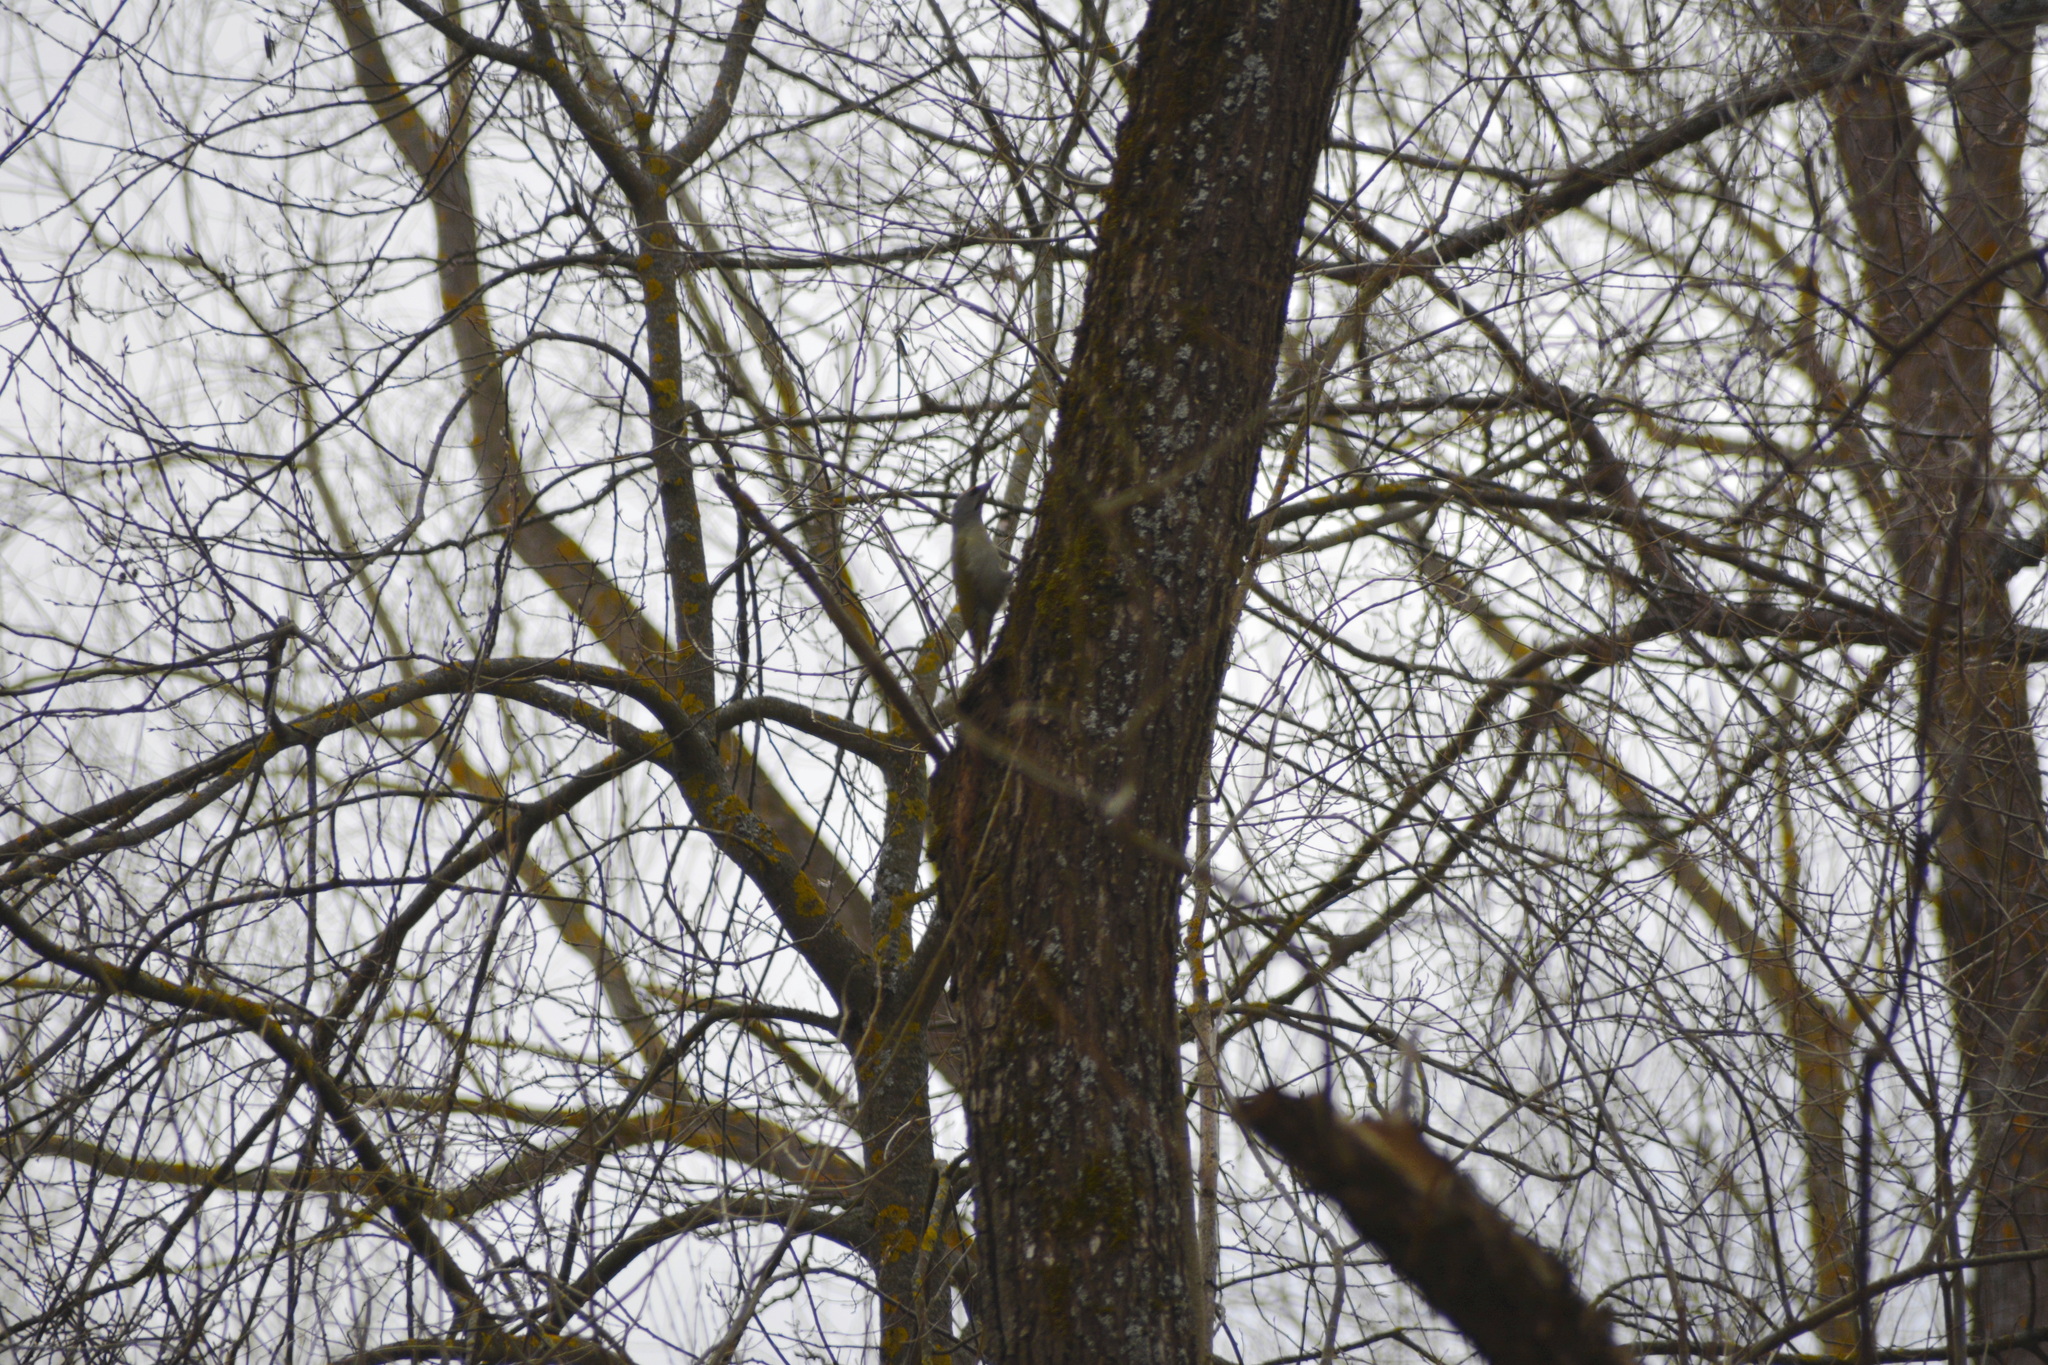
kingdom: Animalia
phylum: Chordata
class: Aves
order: Piciformes
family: Picidae
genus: Picus
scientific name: Picus canus
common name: Grey-headed woodpecker
